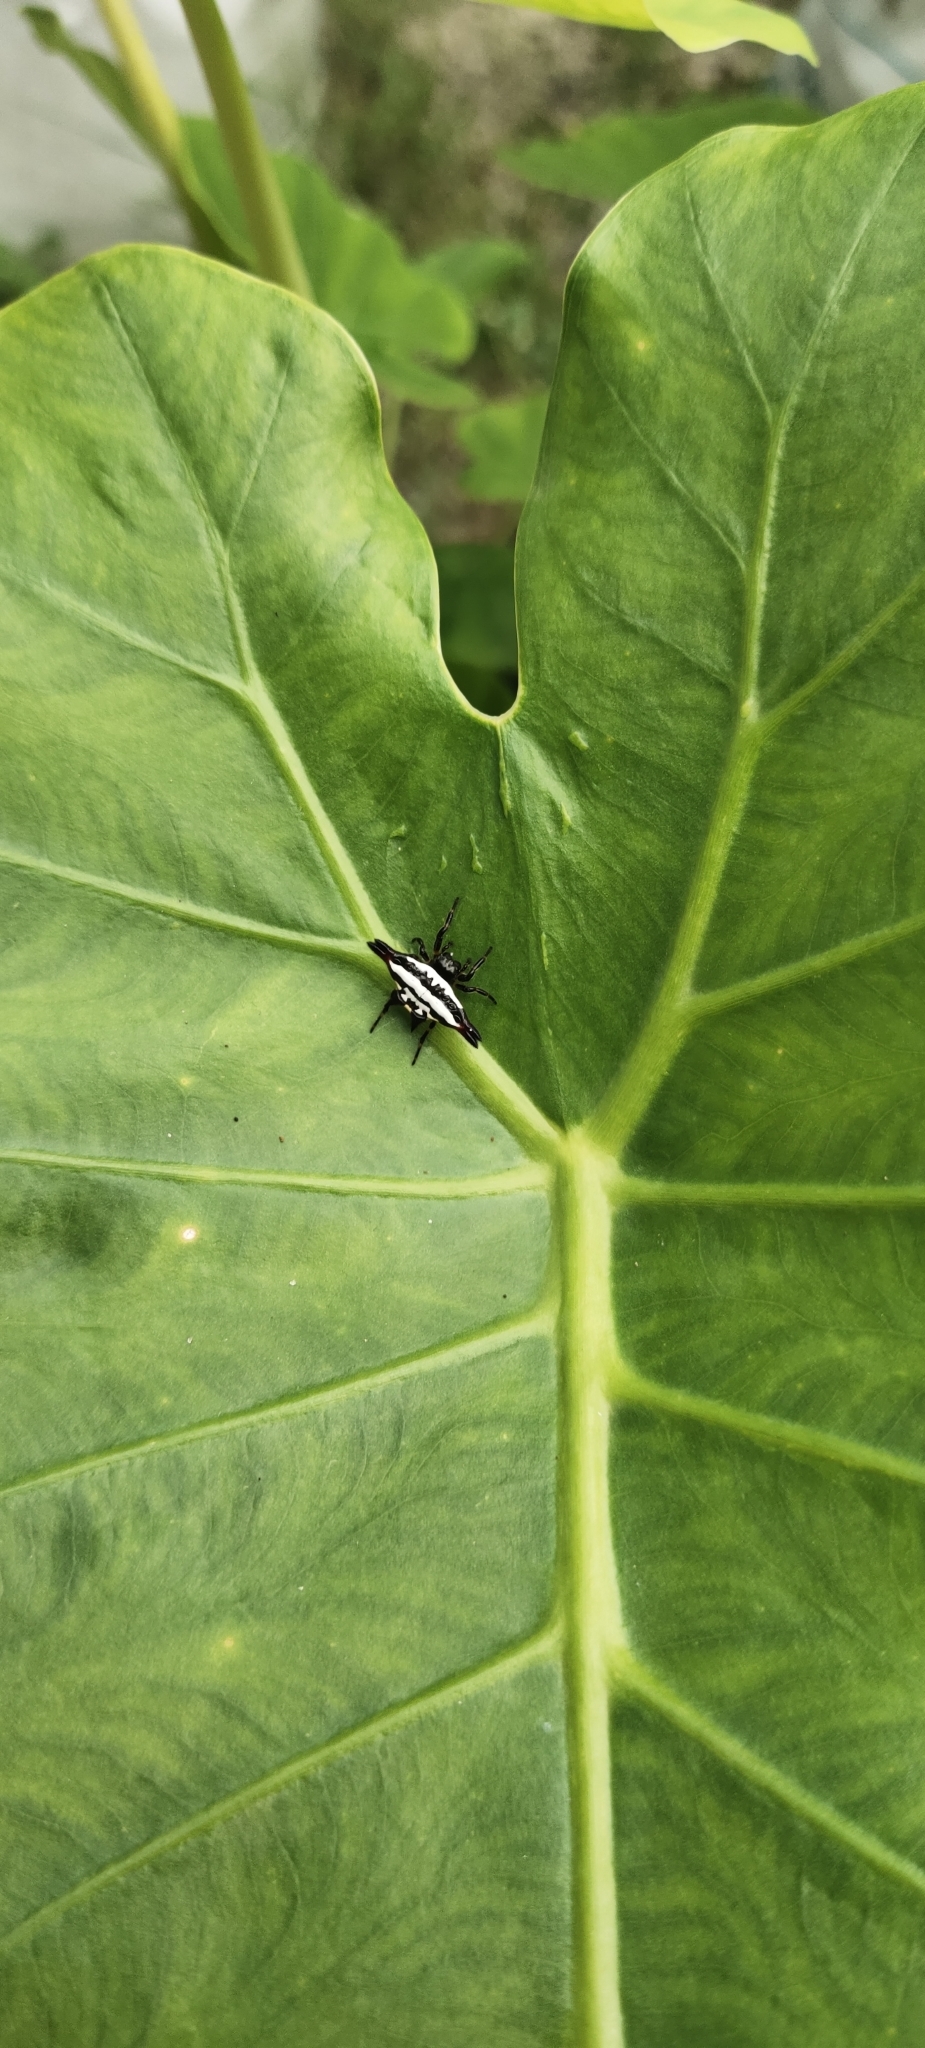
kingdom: Animalia
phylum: Arthropoda
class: Arachnida
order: Araneae
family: Araneidae
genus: Gasteracantha
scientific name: Gasteracantha geminata
